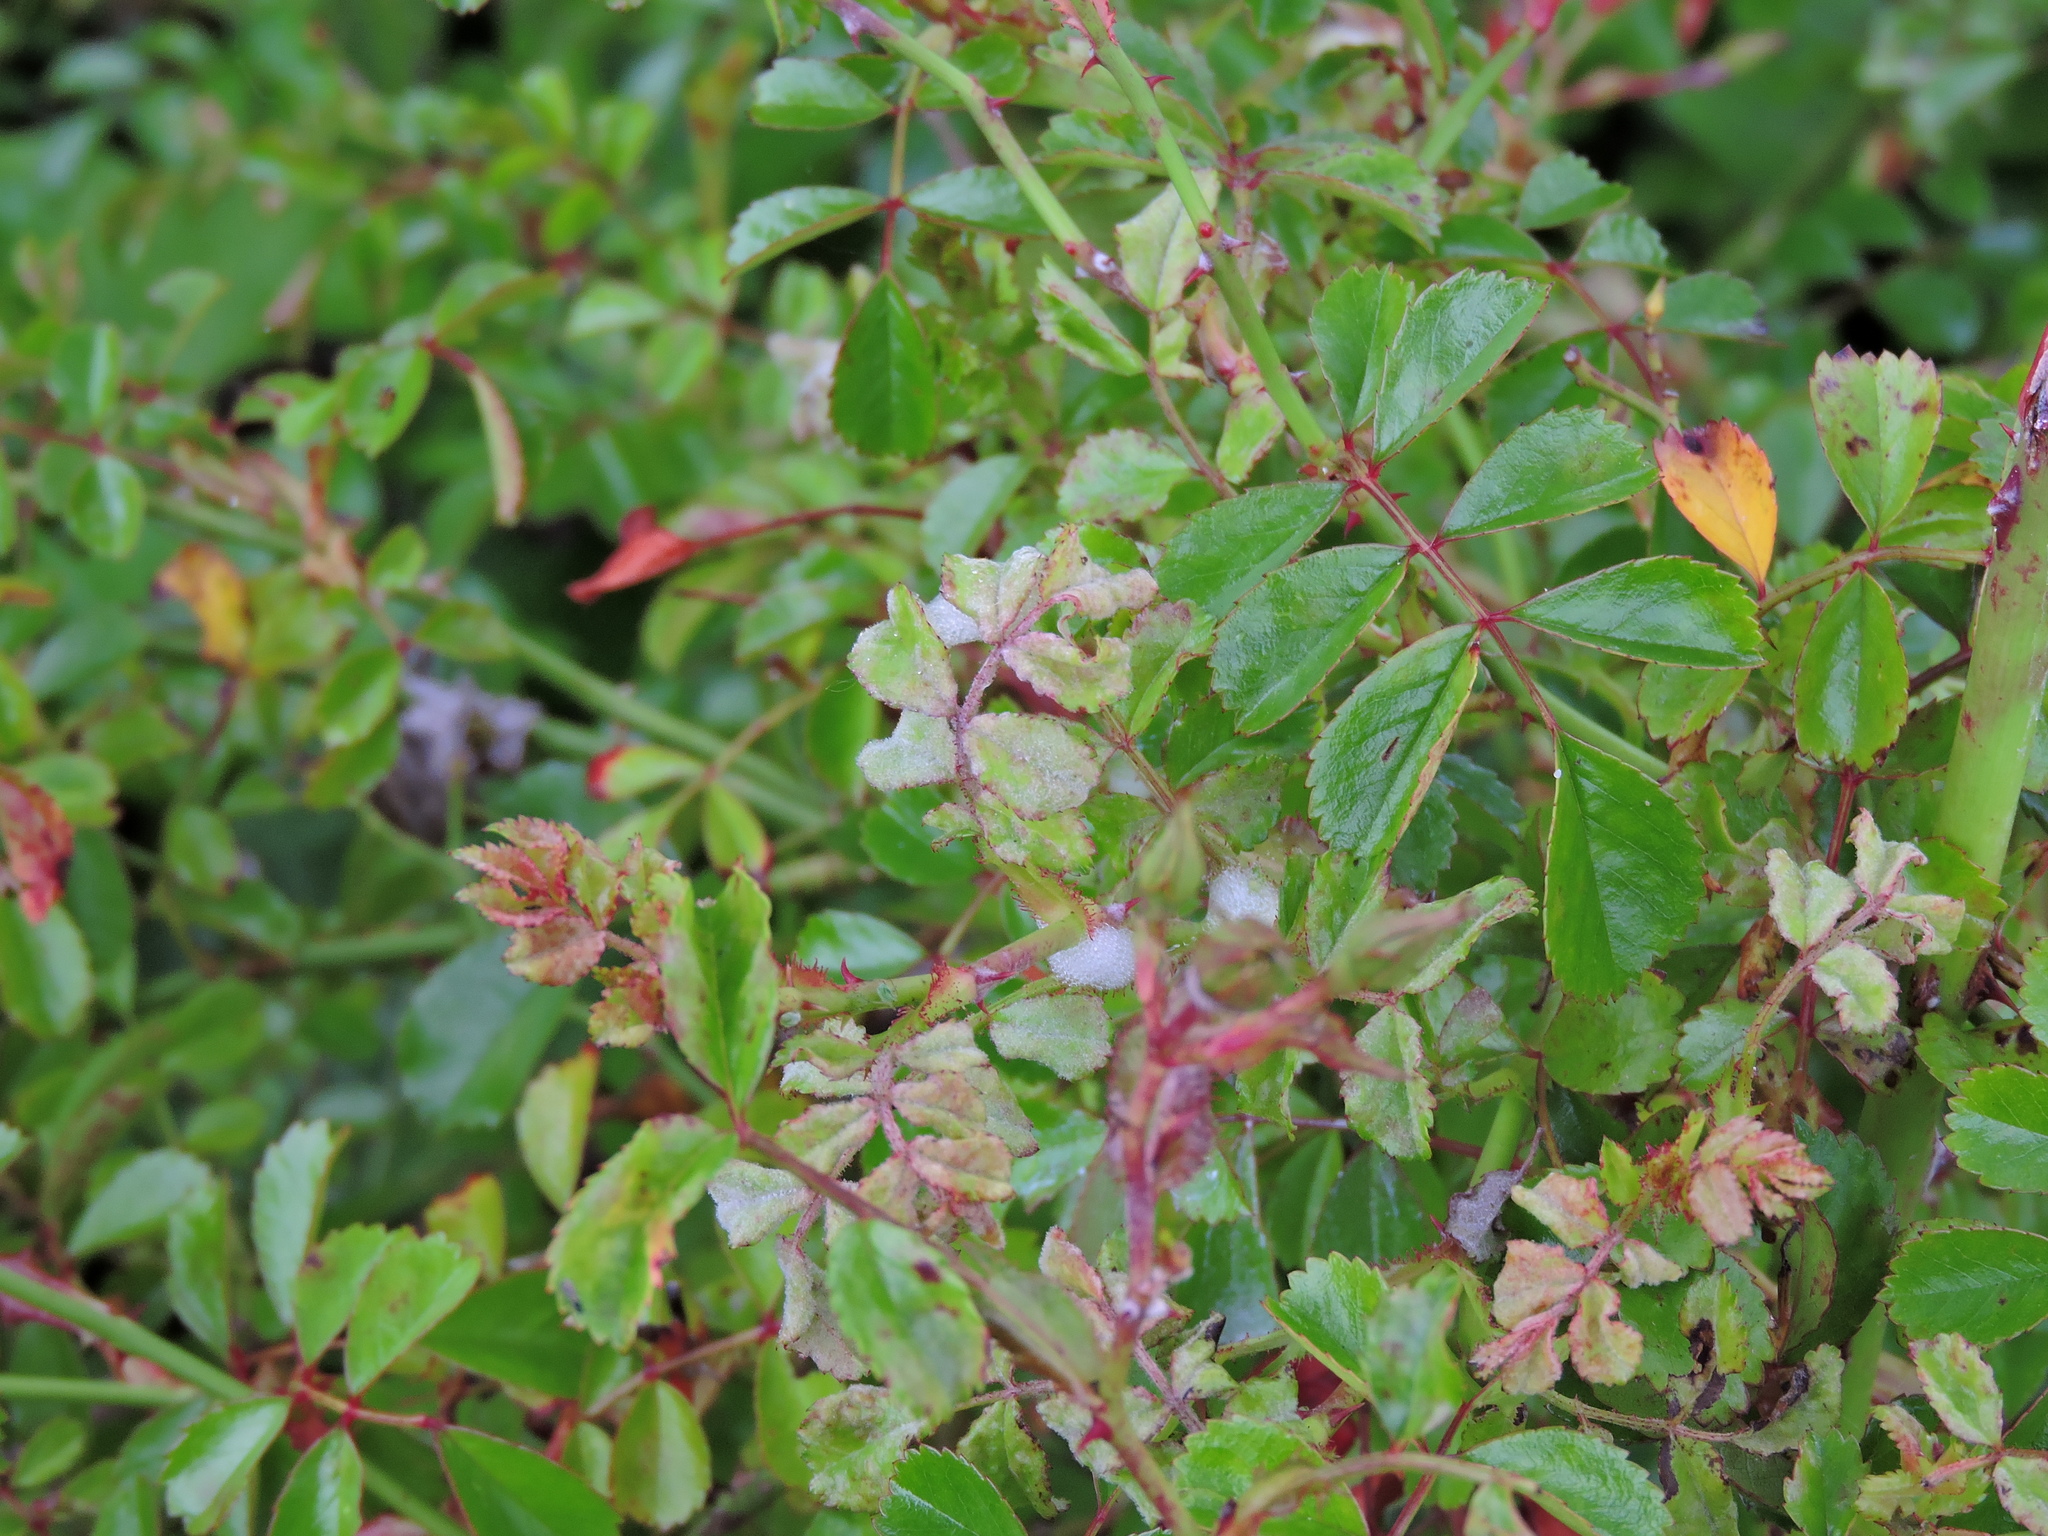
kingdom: Fungi
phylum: Ascomycota
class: Leotiomycetes
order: Helotiales
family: Erysiphaceae
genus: Podosphaera
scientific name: Podosphaera pannosa
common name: Rose mildew
